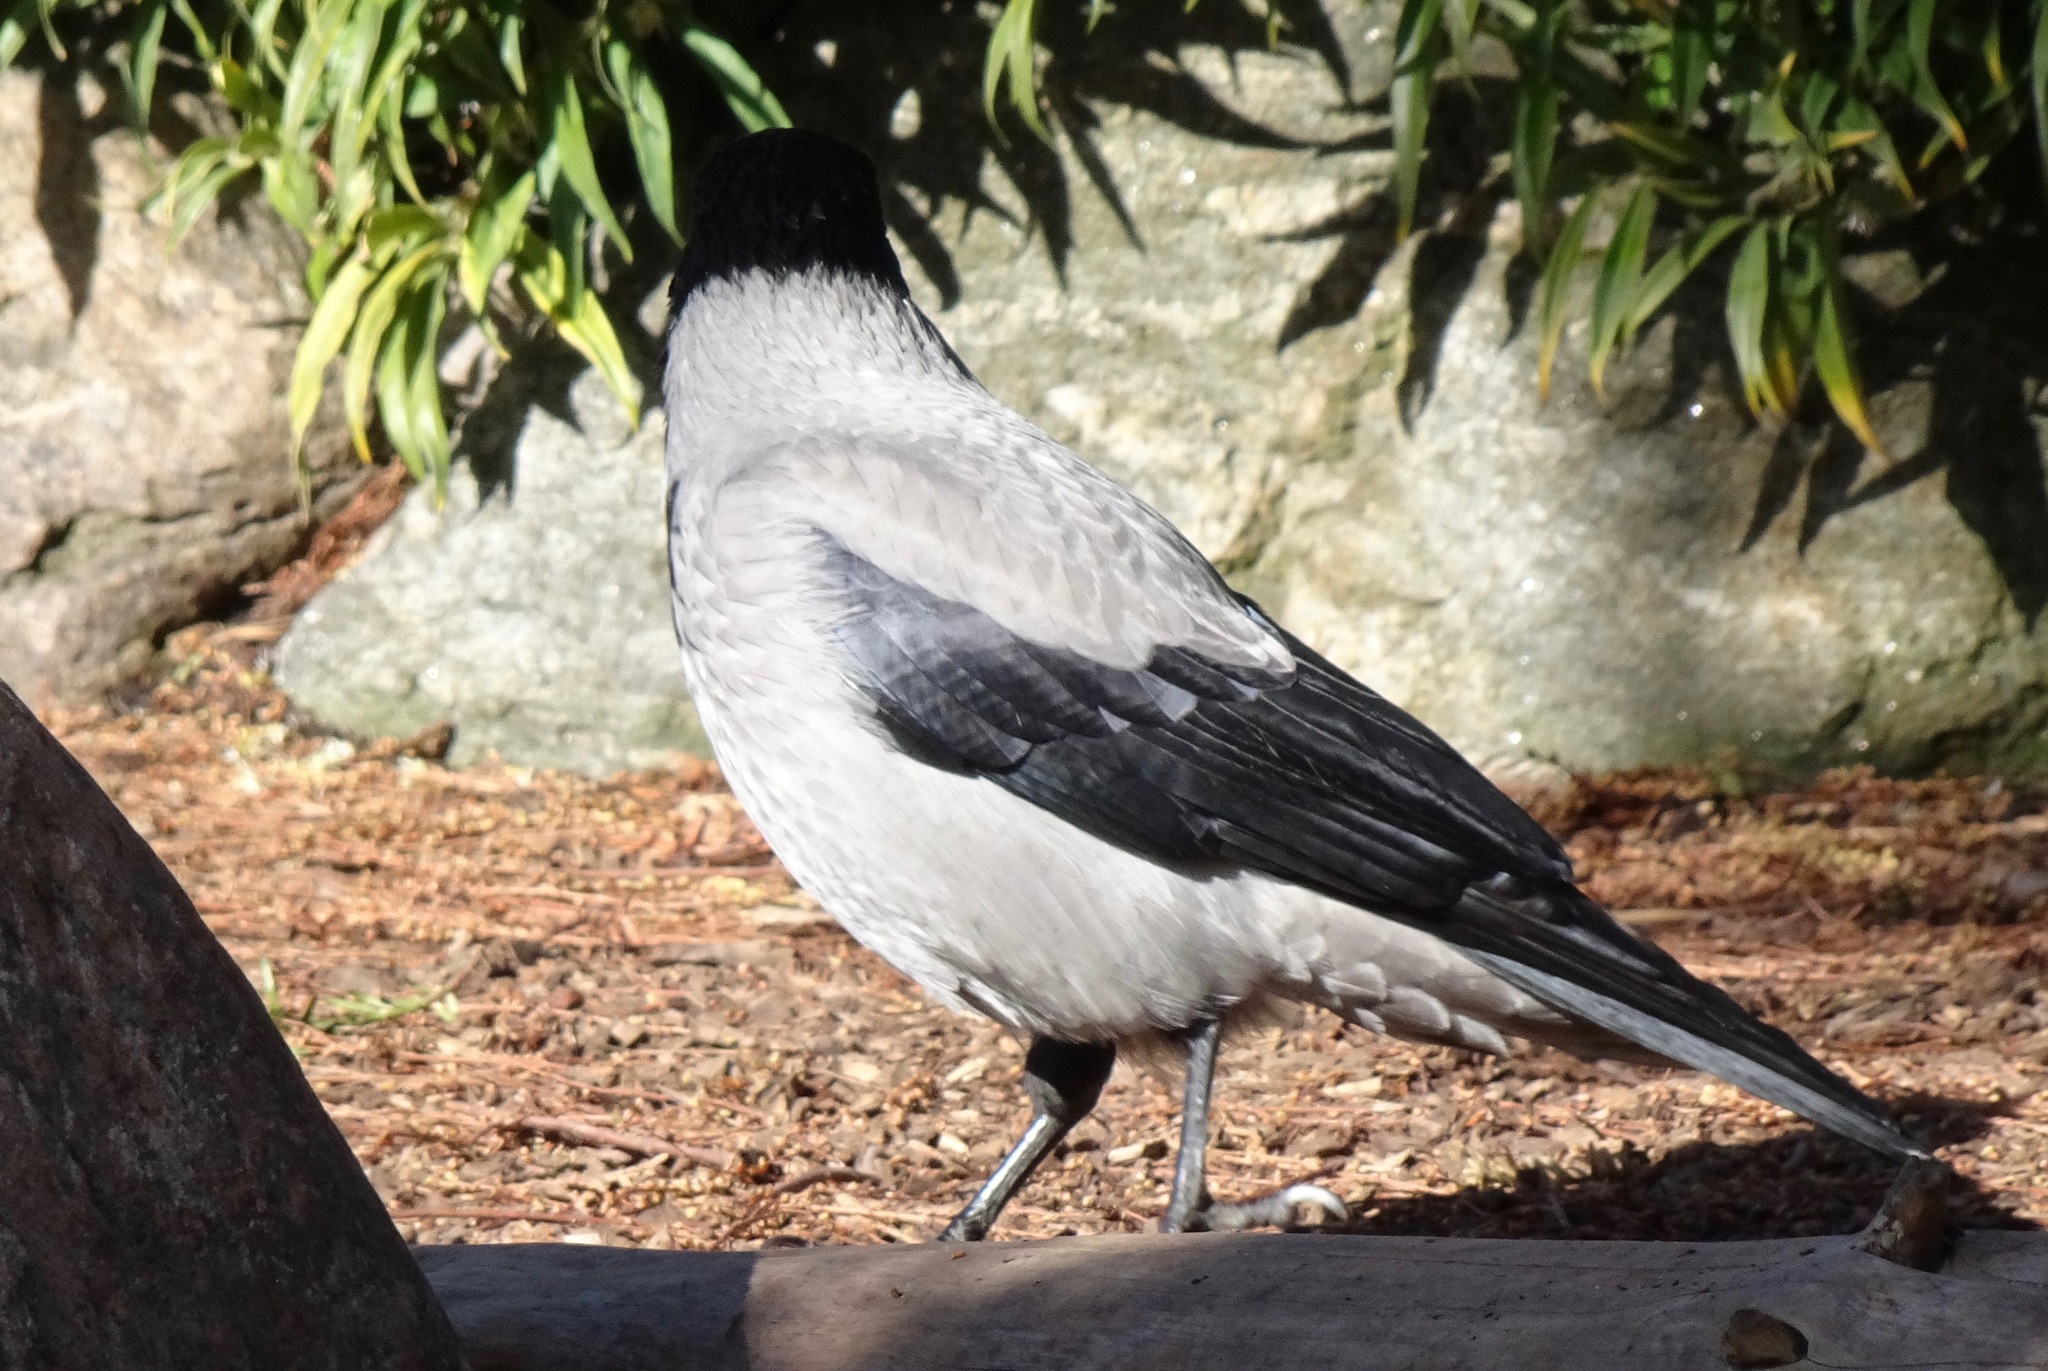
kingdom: Animalia
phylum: Chordata
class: Aves
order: Passeriformes
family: Corvidae
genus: Corvus
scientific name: Corvus cornix
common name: Hooded crow
